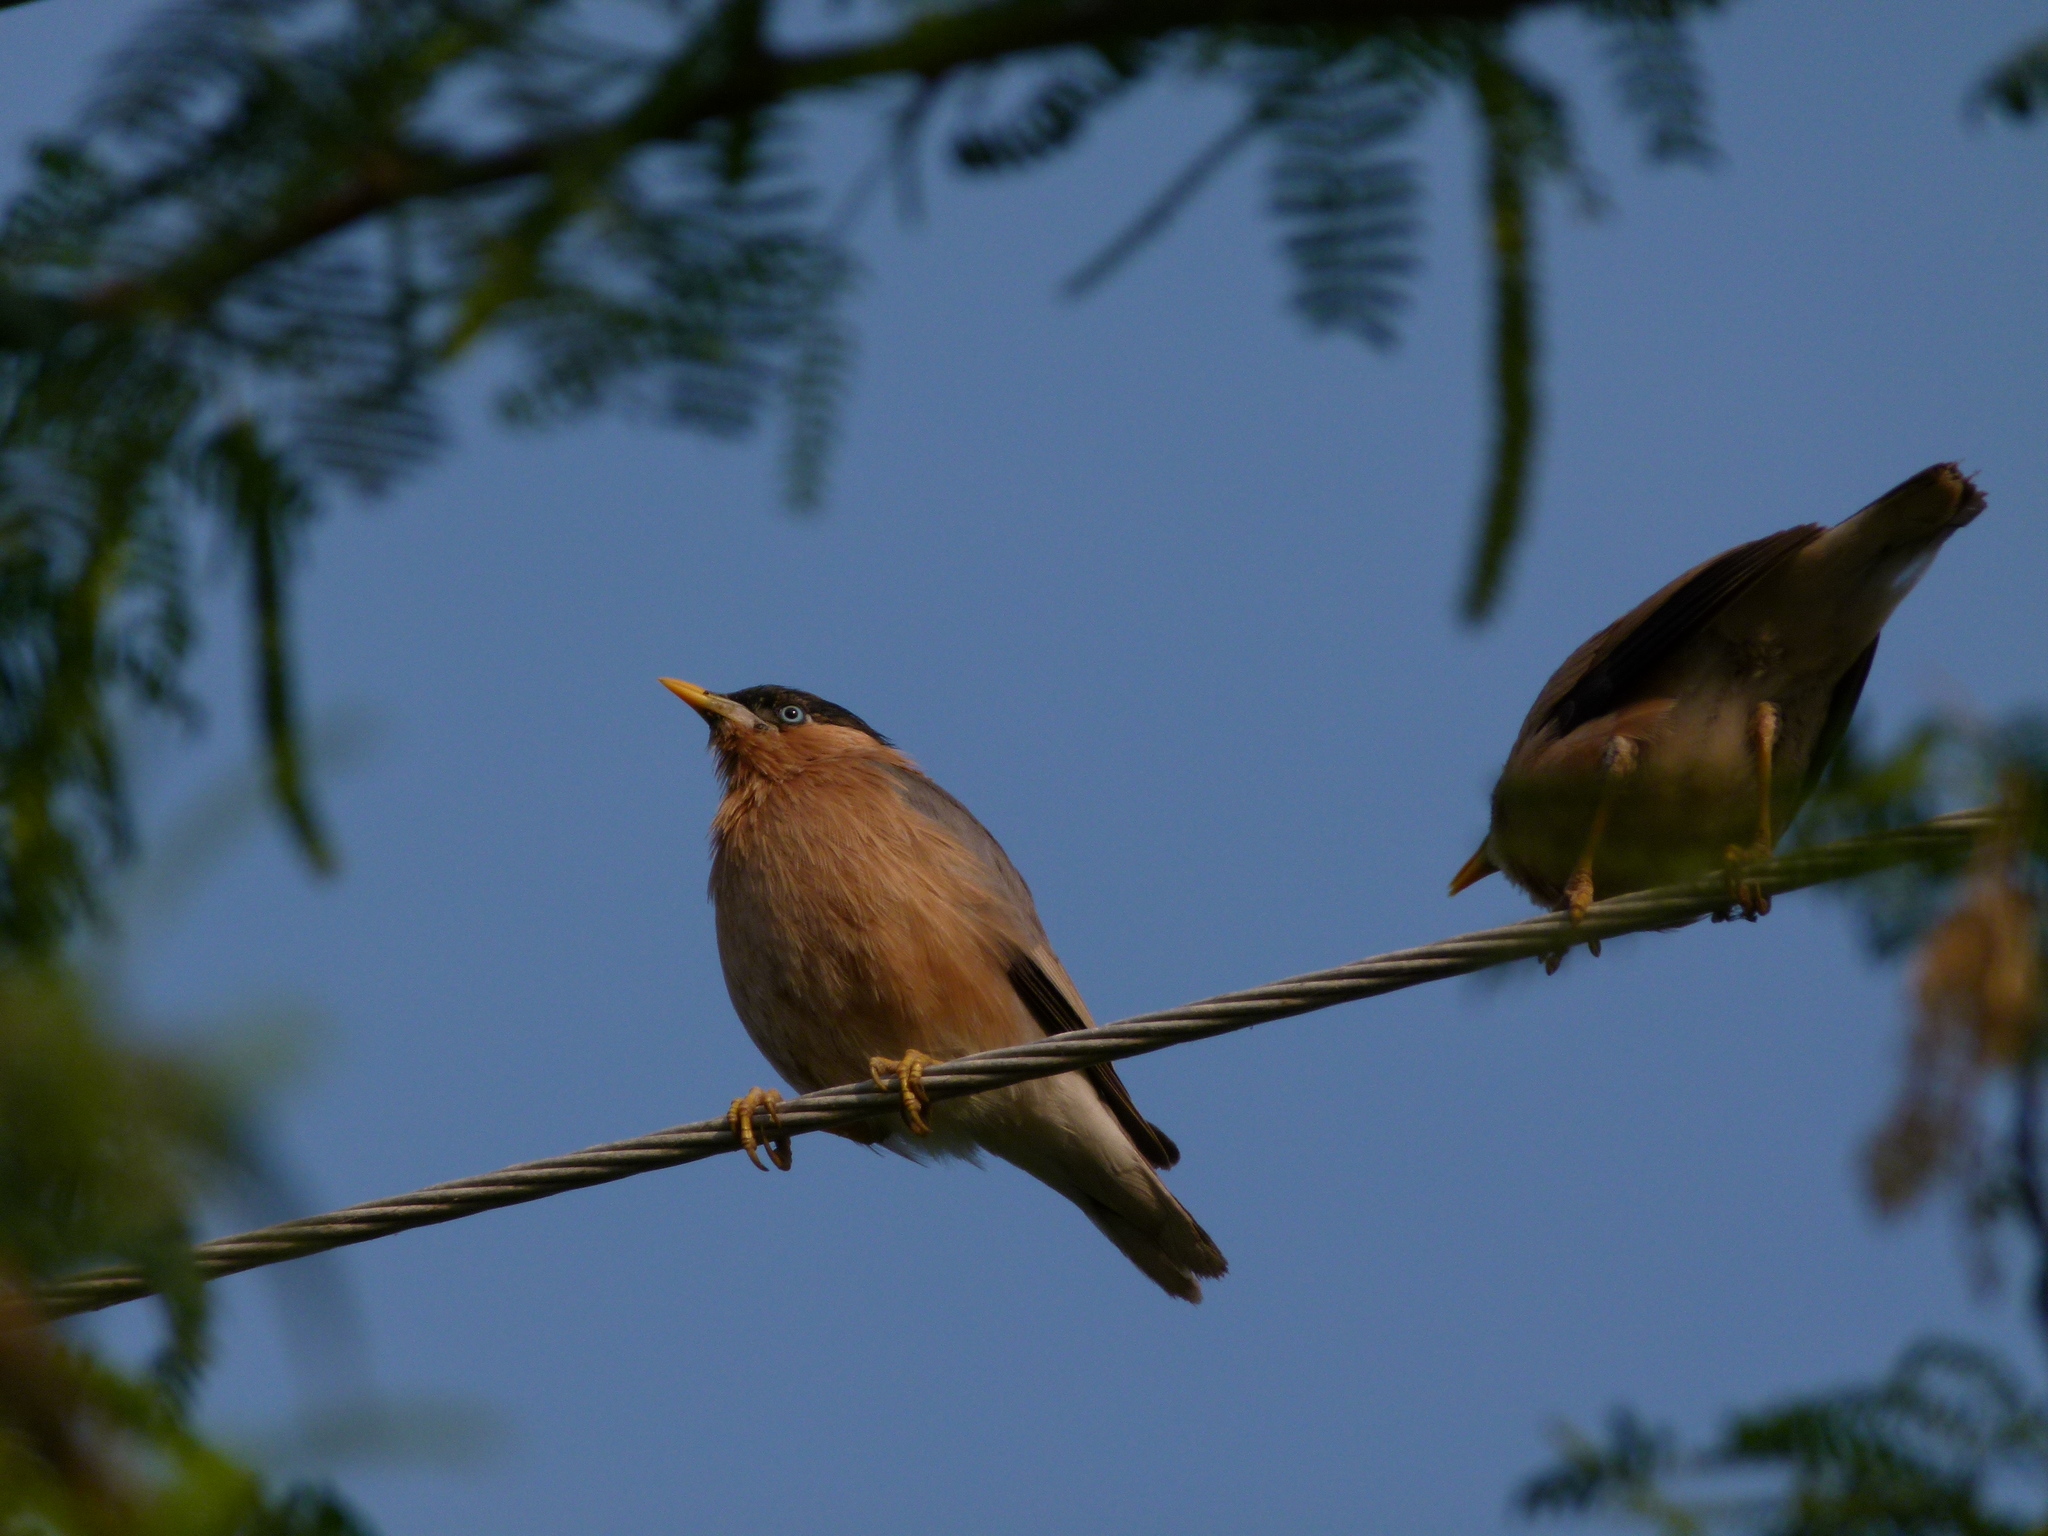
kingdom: Animalia
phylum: Chordata
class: Aves
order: Passeriformes
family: Sturnidae
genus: Sturnia
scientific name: Sturnia pagodarum
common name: Brahminy starling
